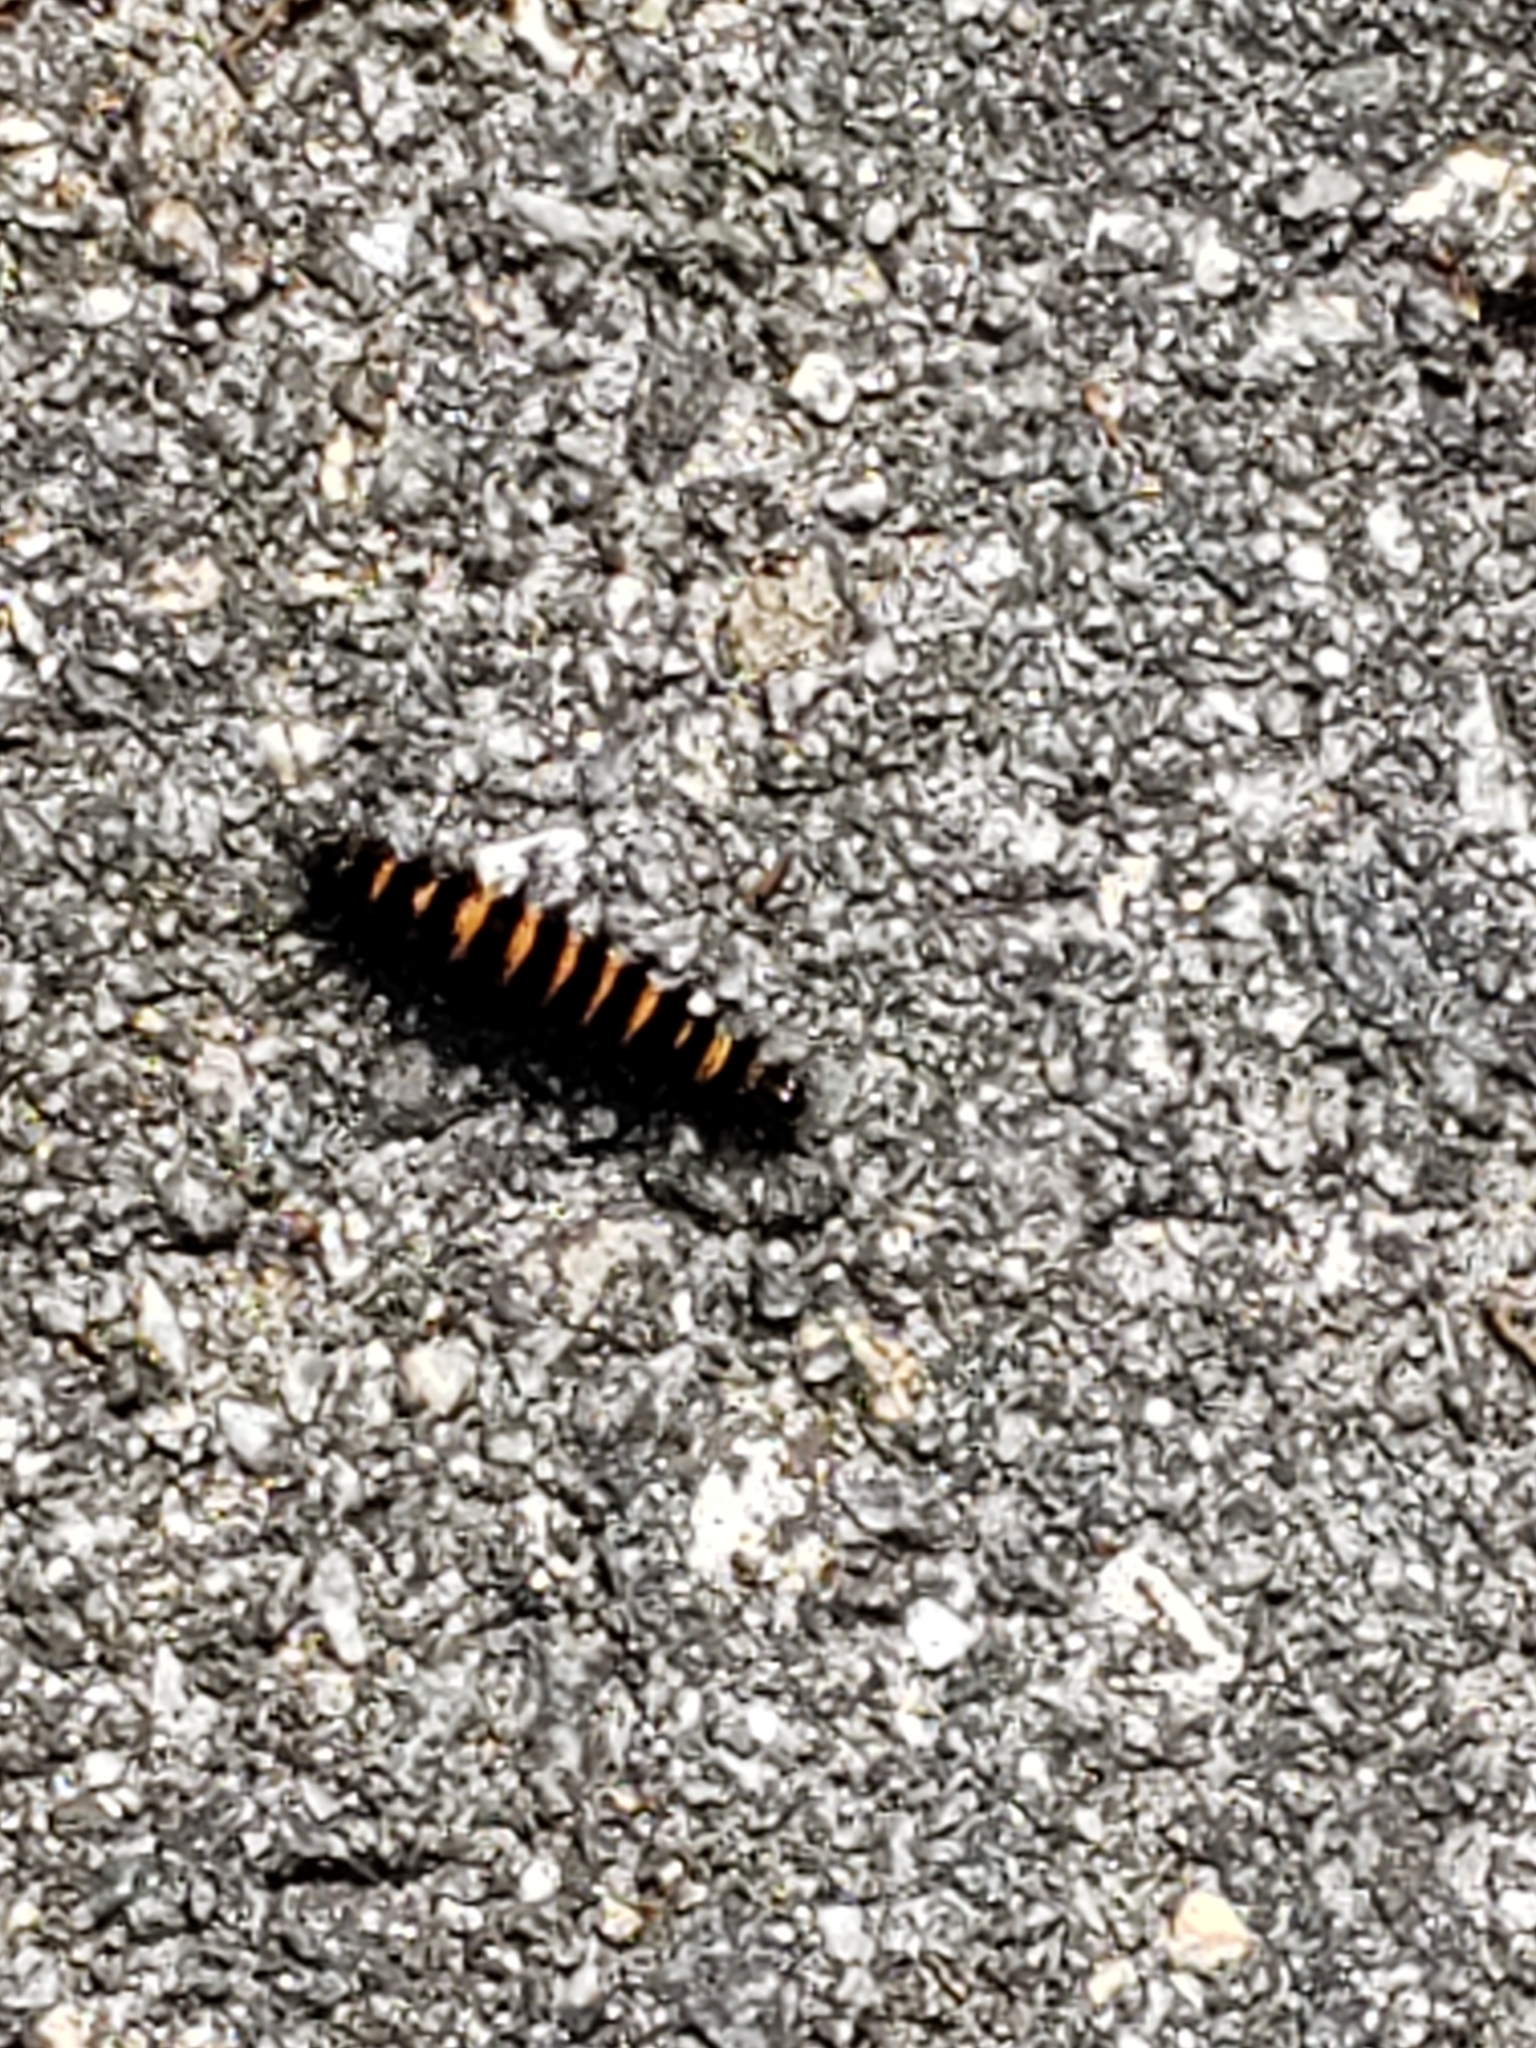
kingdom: Animalia
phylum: Arthropoda
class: Insecta
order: Lepidoptera
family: Erebidae
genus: Spilosoma
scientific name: Spilosoma congrua
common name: Agreeable tiger moth
